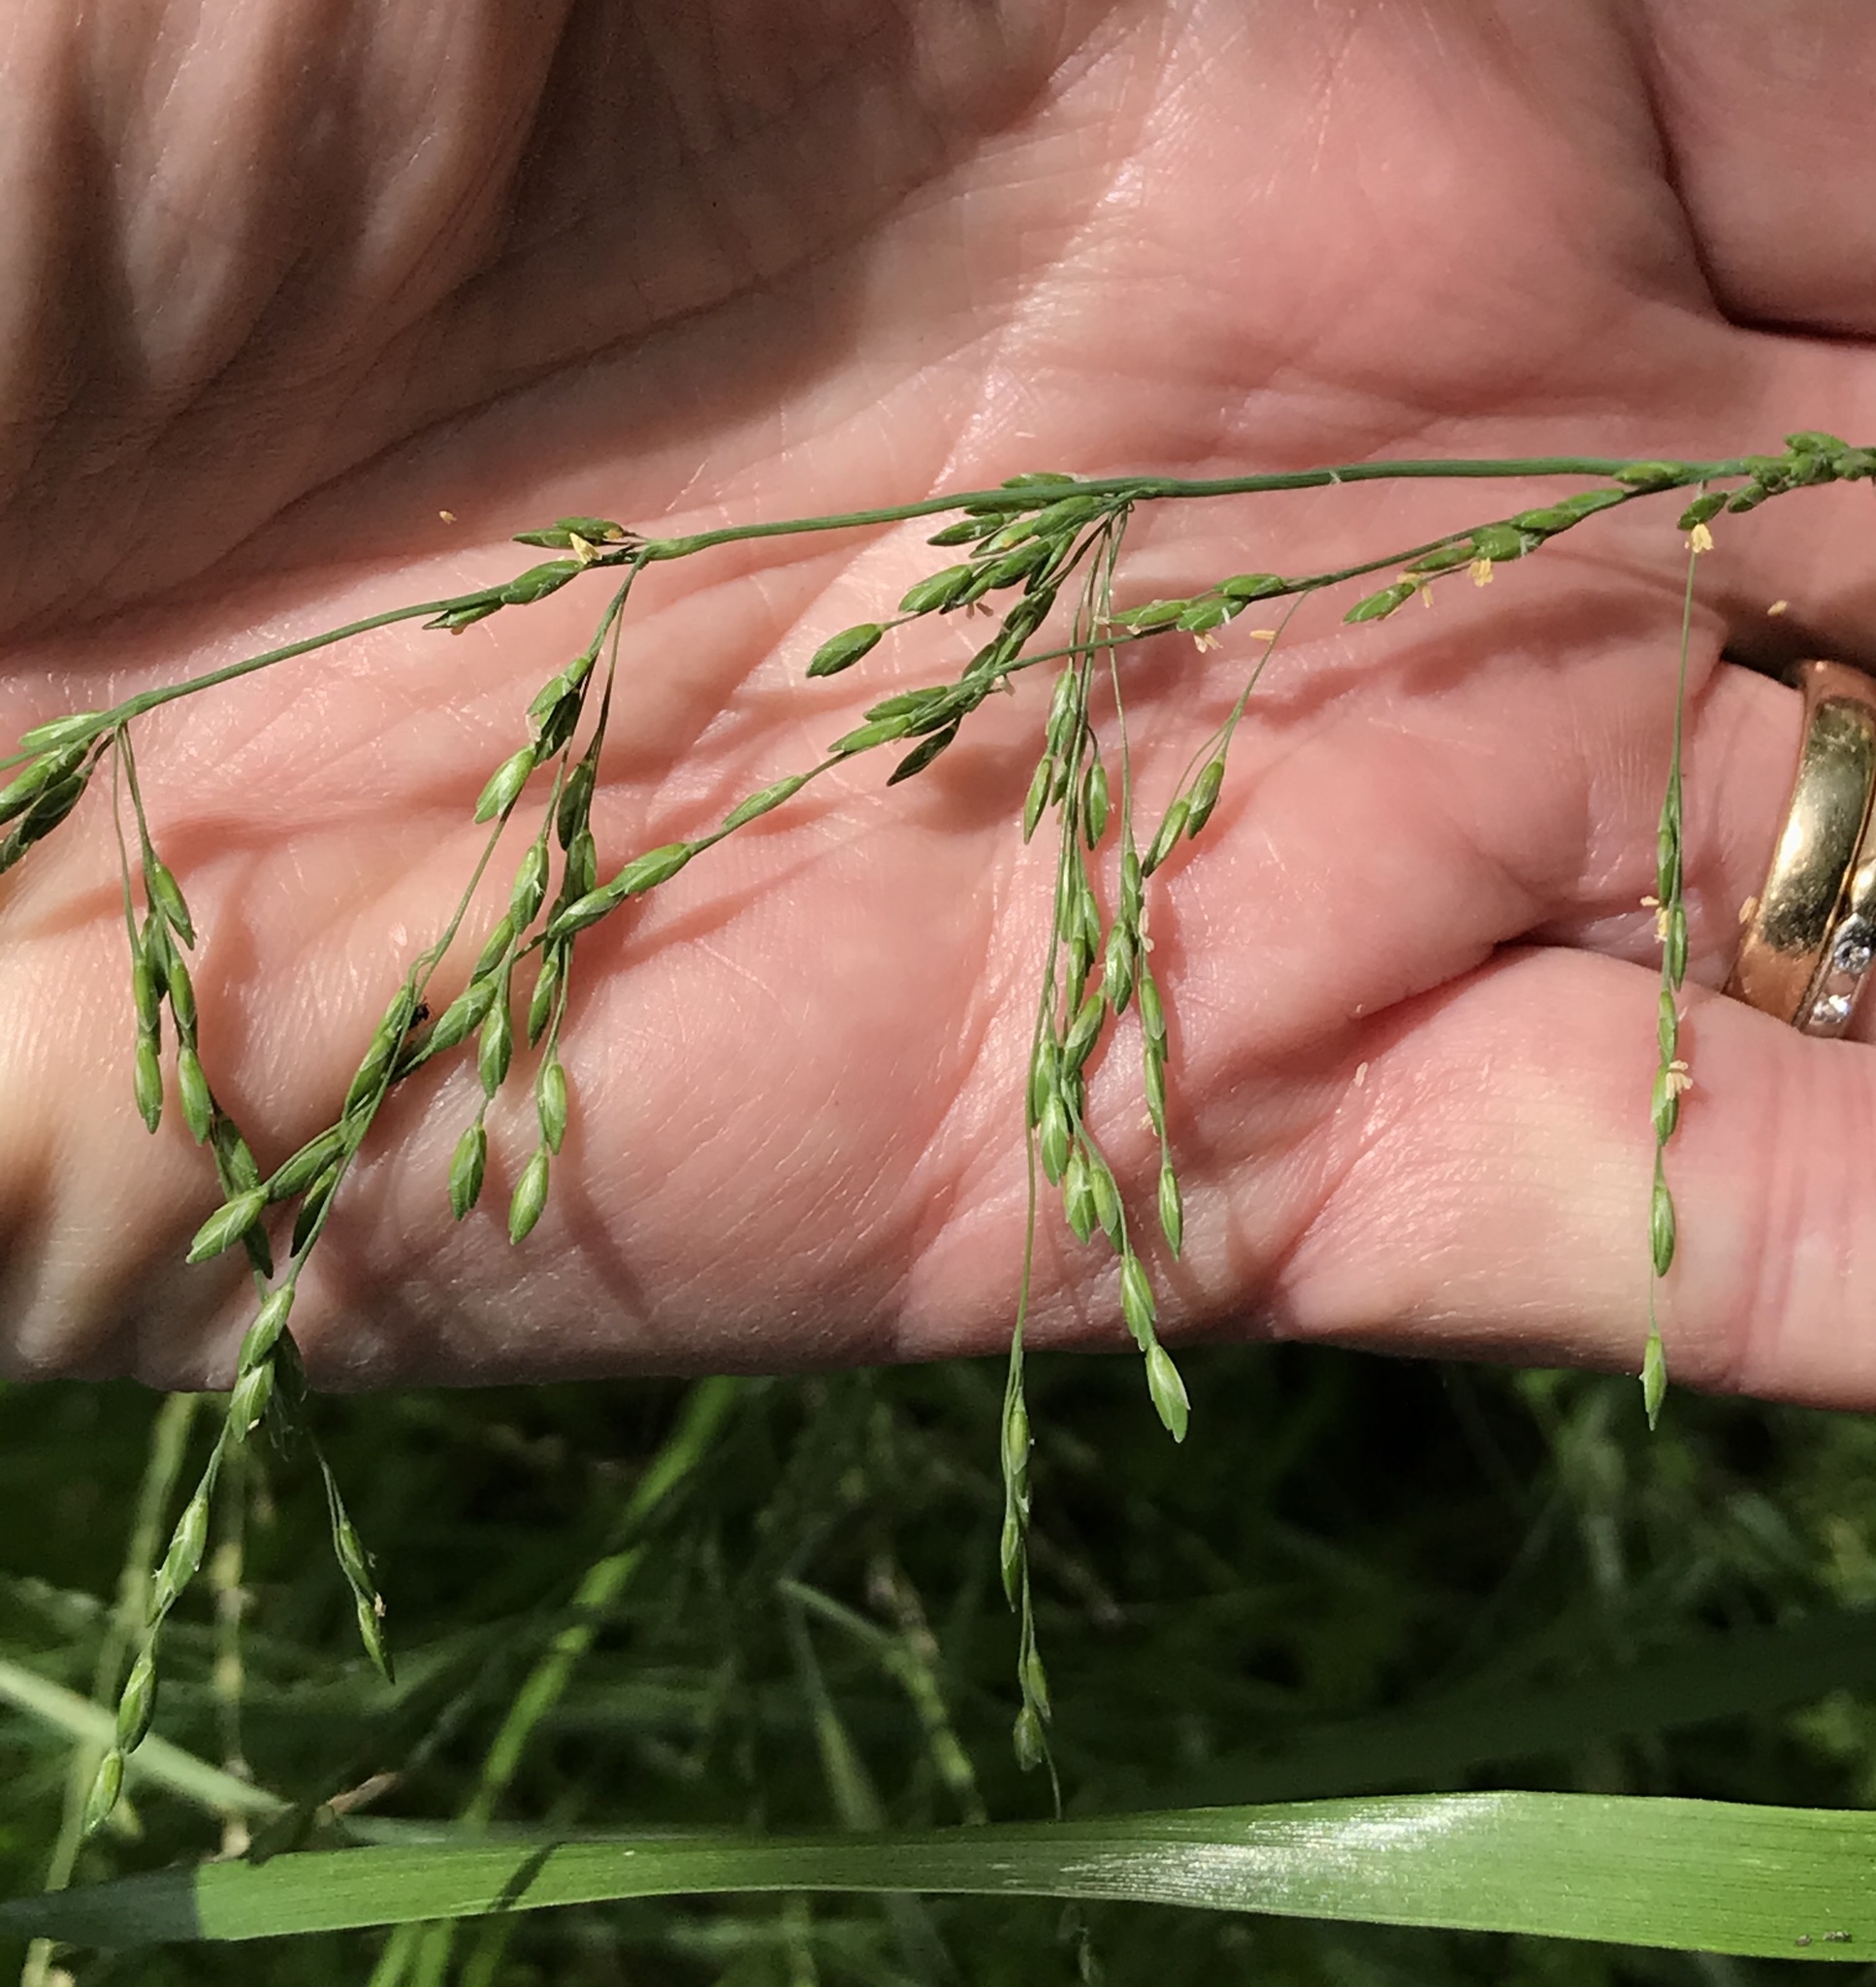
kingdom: Plantae
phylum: Tracheophyta
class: Liliopsida
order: Poales
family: Poaceae
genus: Ehrharta
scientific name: Ehrharta erecta
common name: Panic veldtgrass
